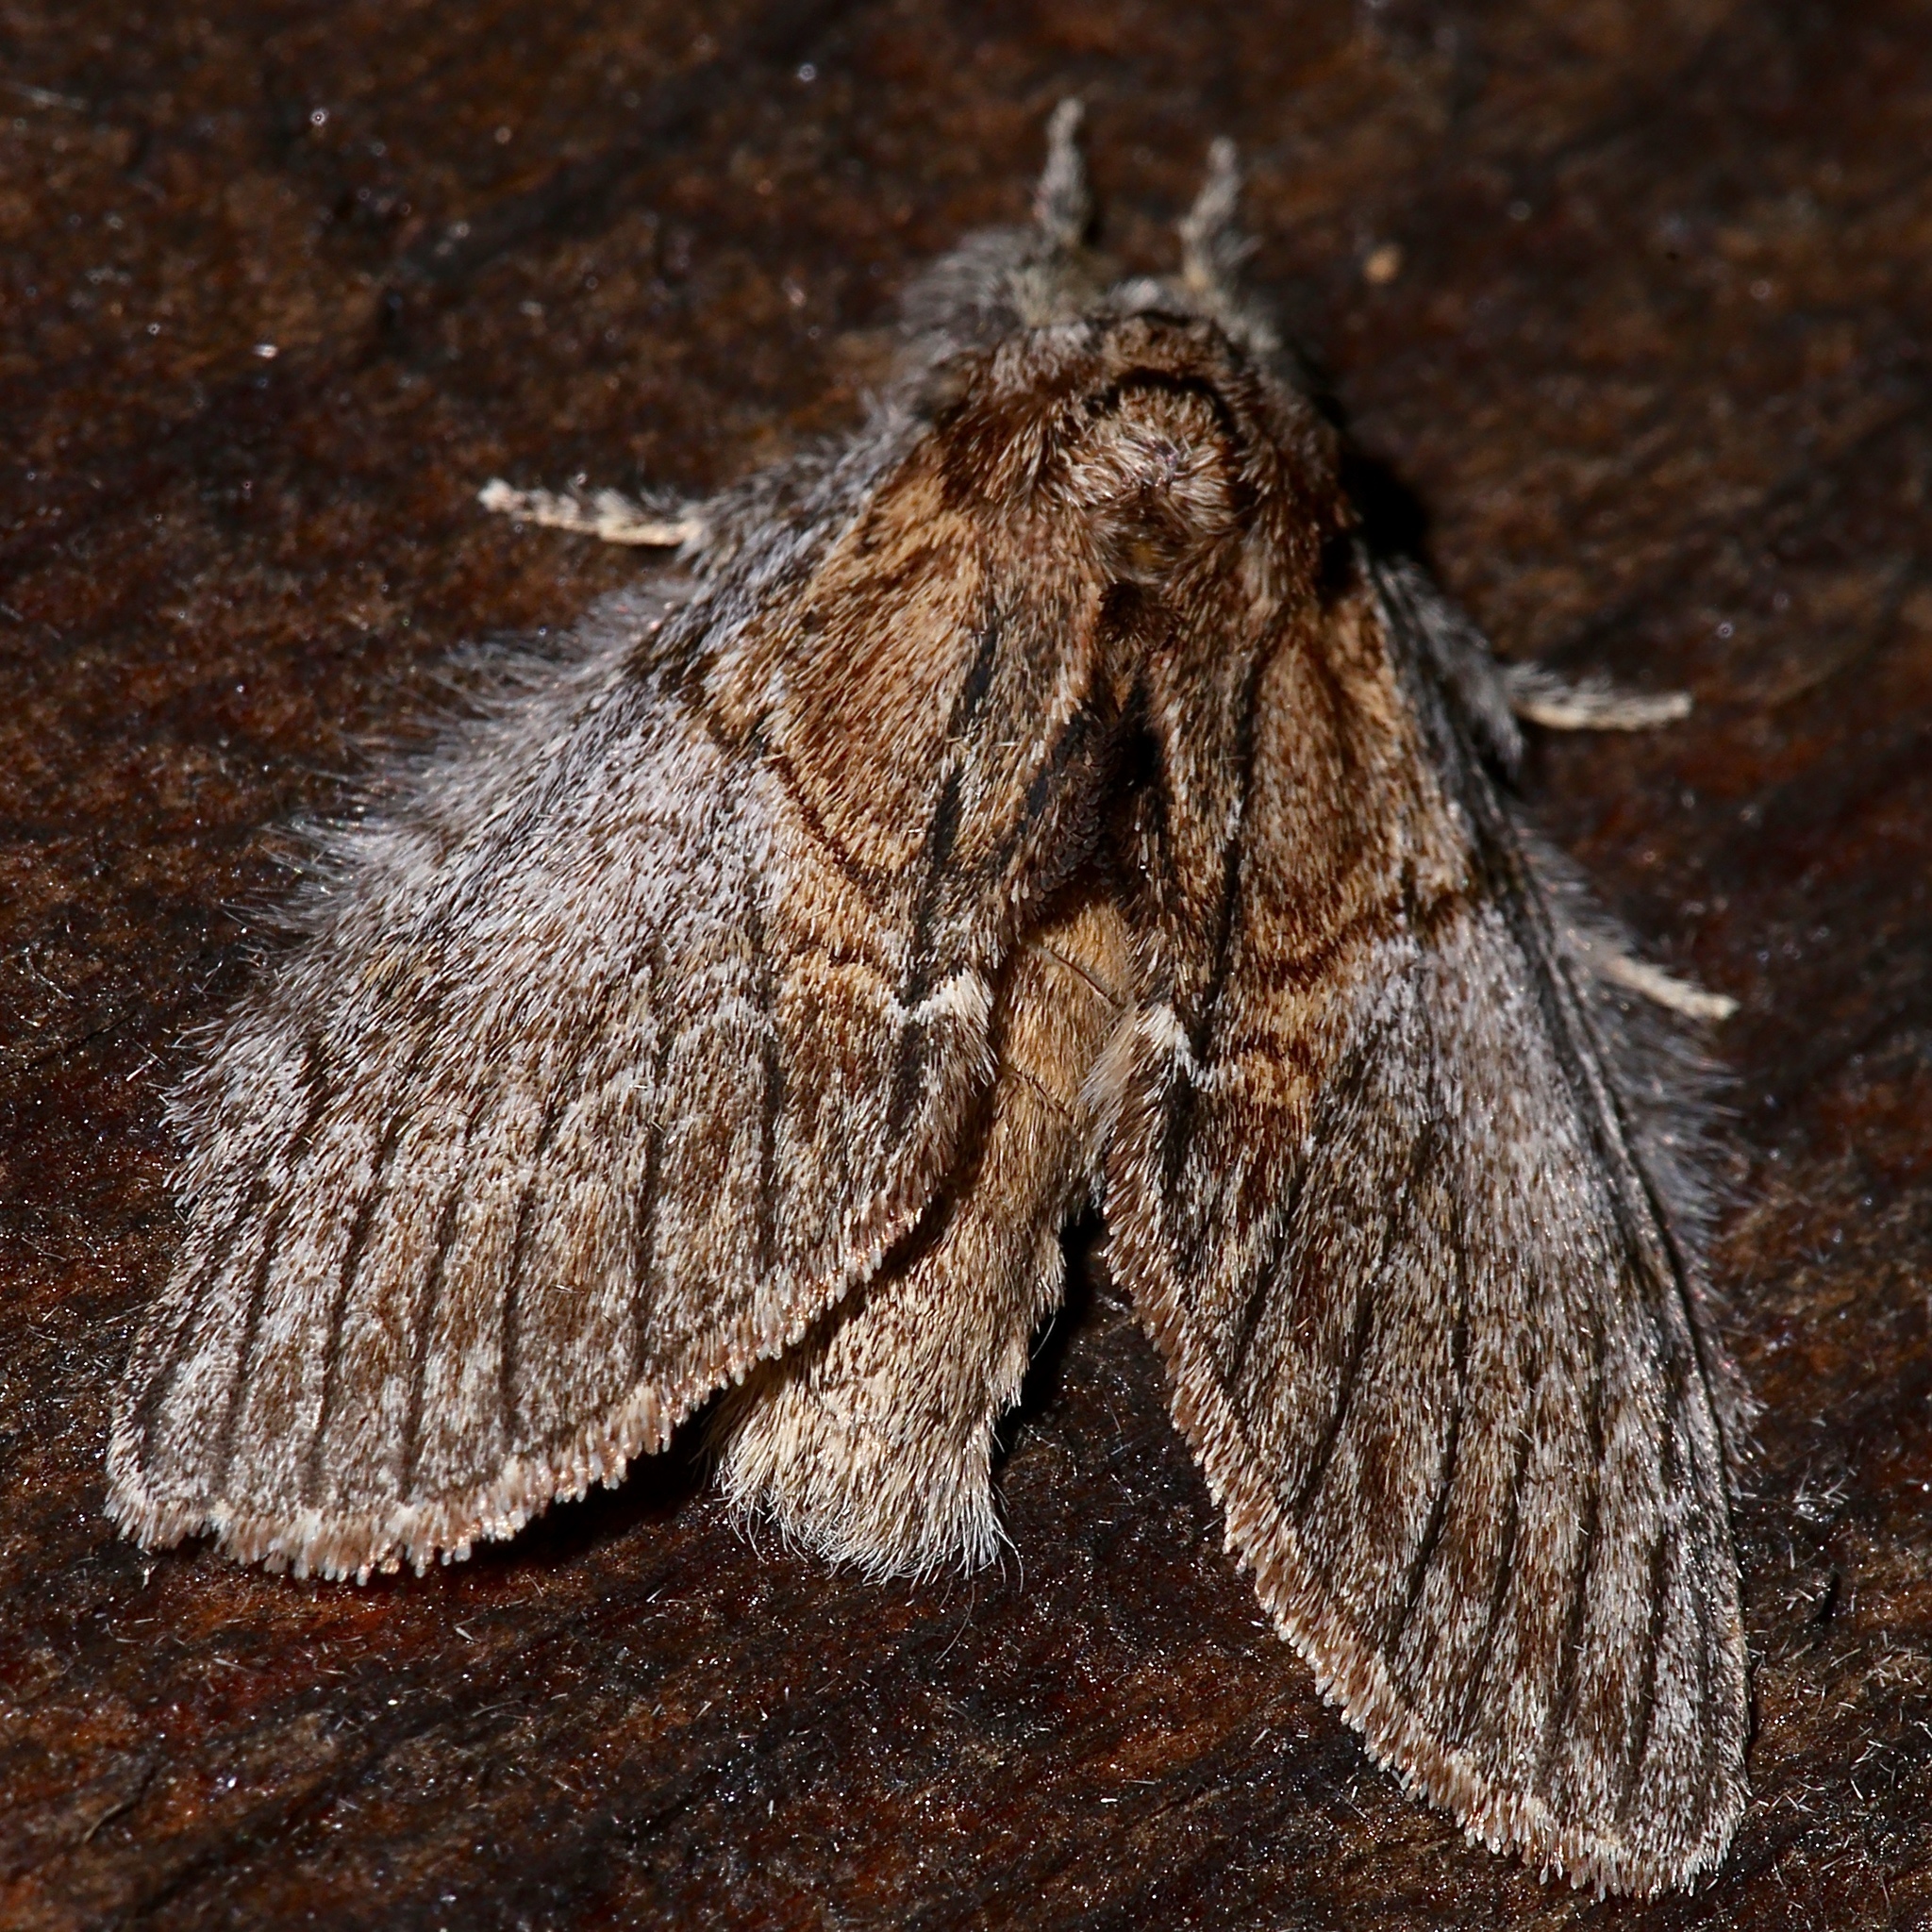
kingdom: Animalia
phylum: Arthropoda
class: Insecta
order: Lepidoptera
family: Notodontidae
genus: Peridea
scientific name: Peridea basitriens
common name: Oval-based prominent
